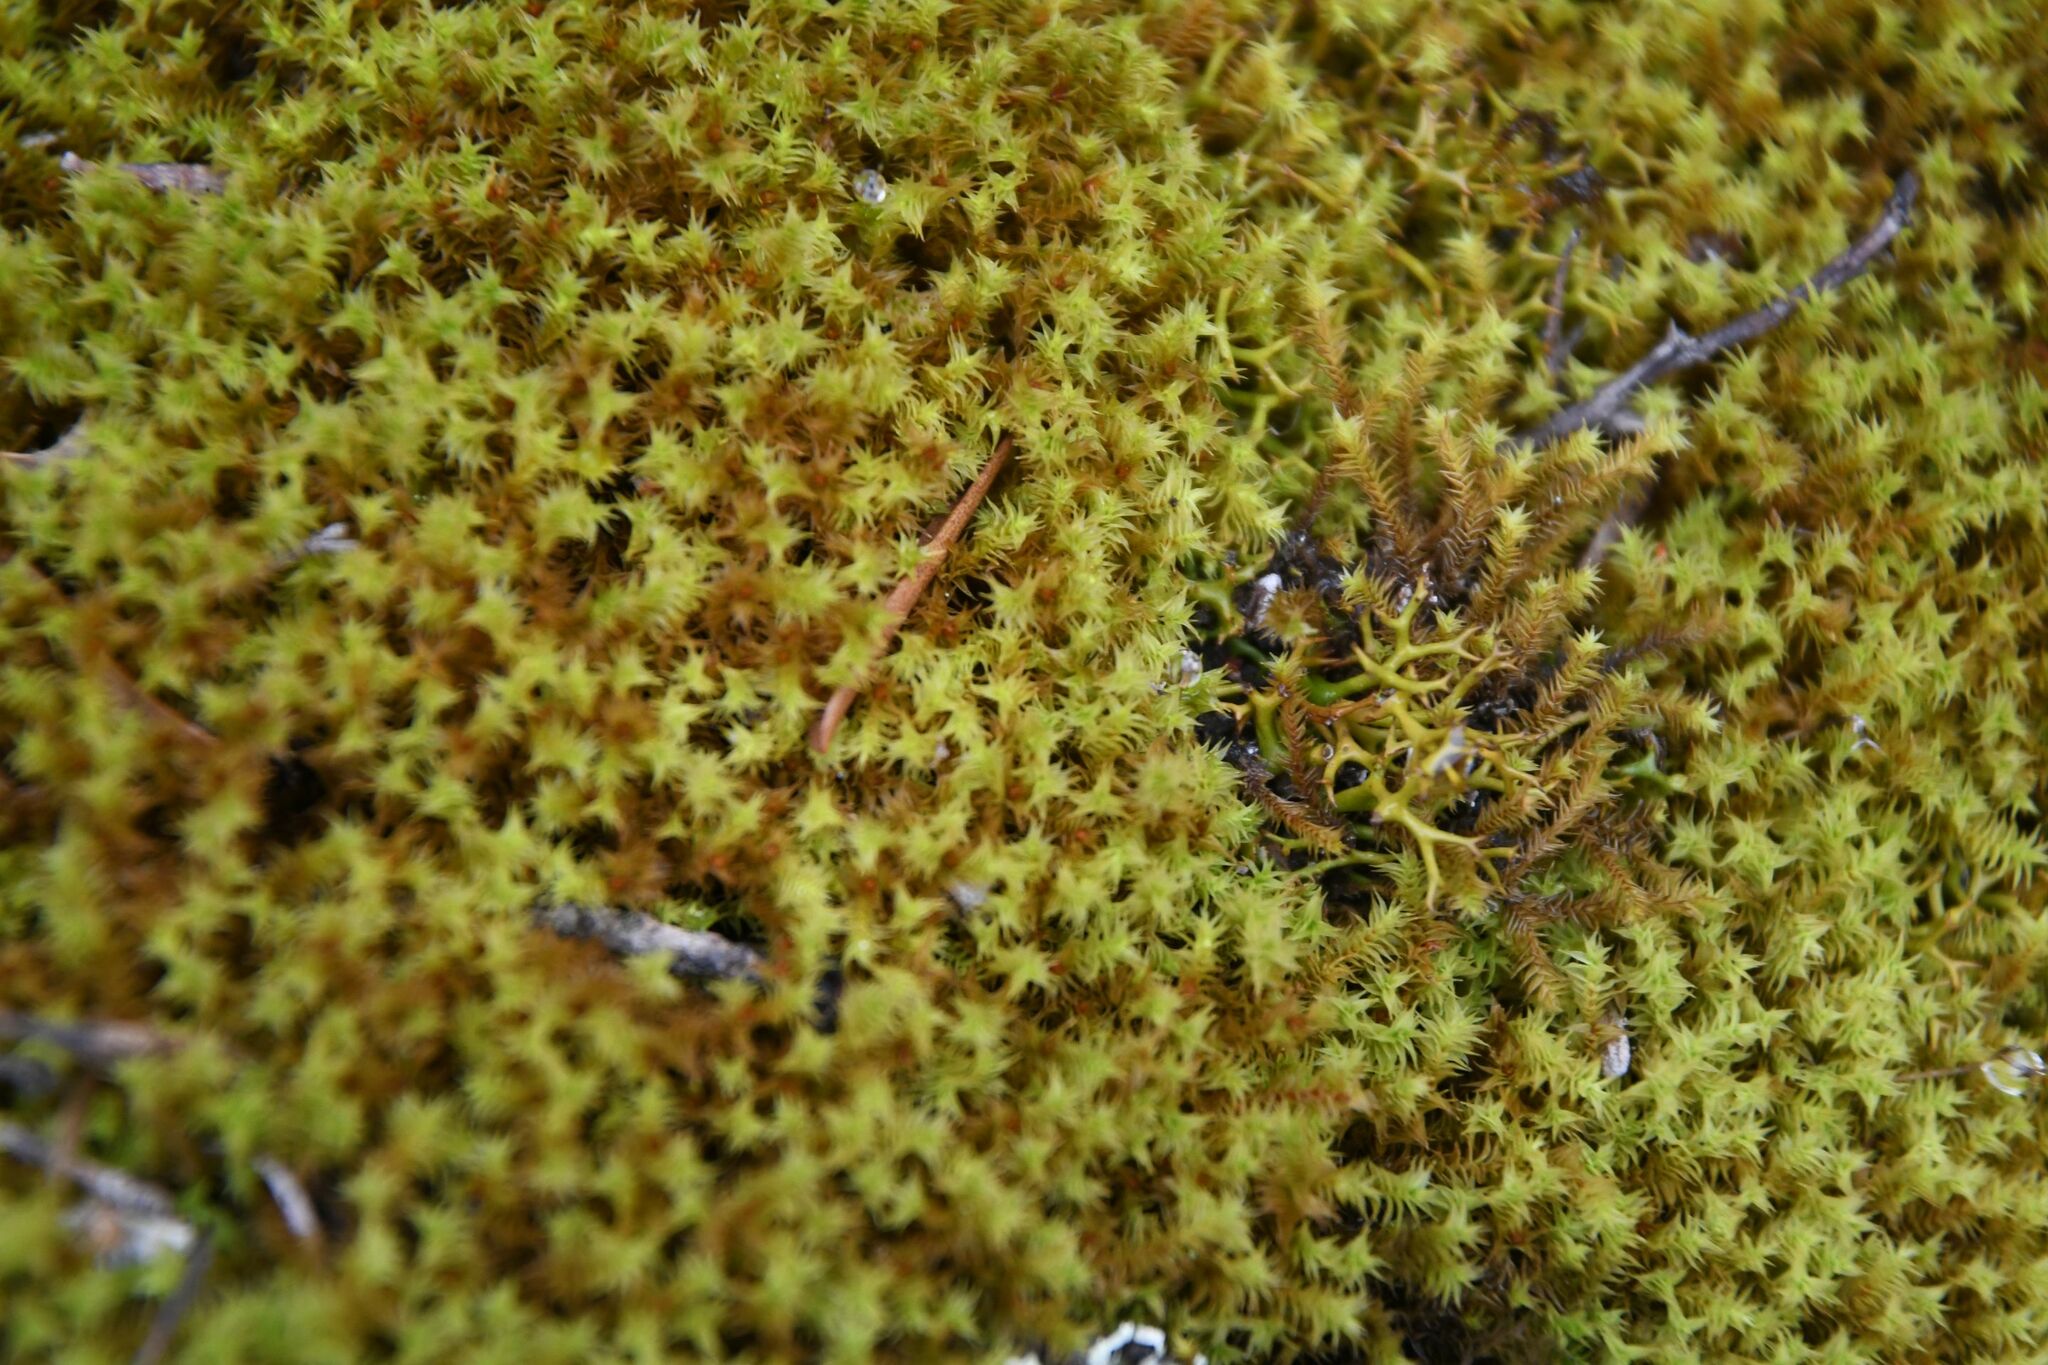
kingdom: Plantae
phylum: Bryophyta
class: Bryopsida
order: Pottiales
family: Pottiaceae
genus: Triquetrella
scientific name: Triquetrella papillata
